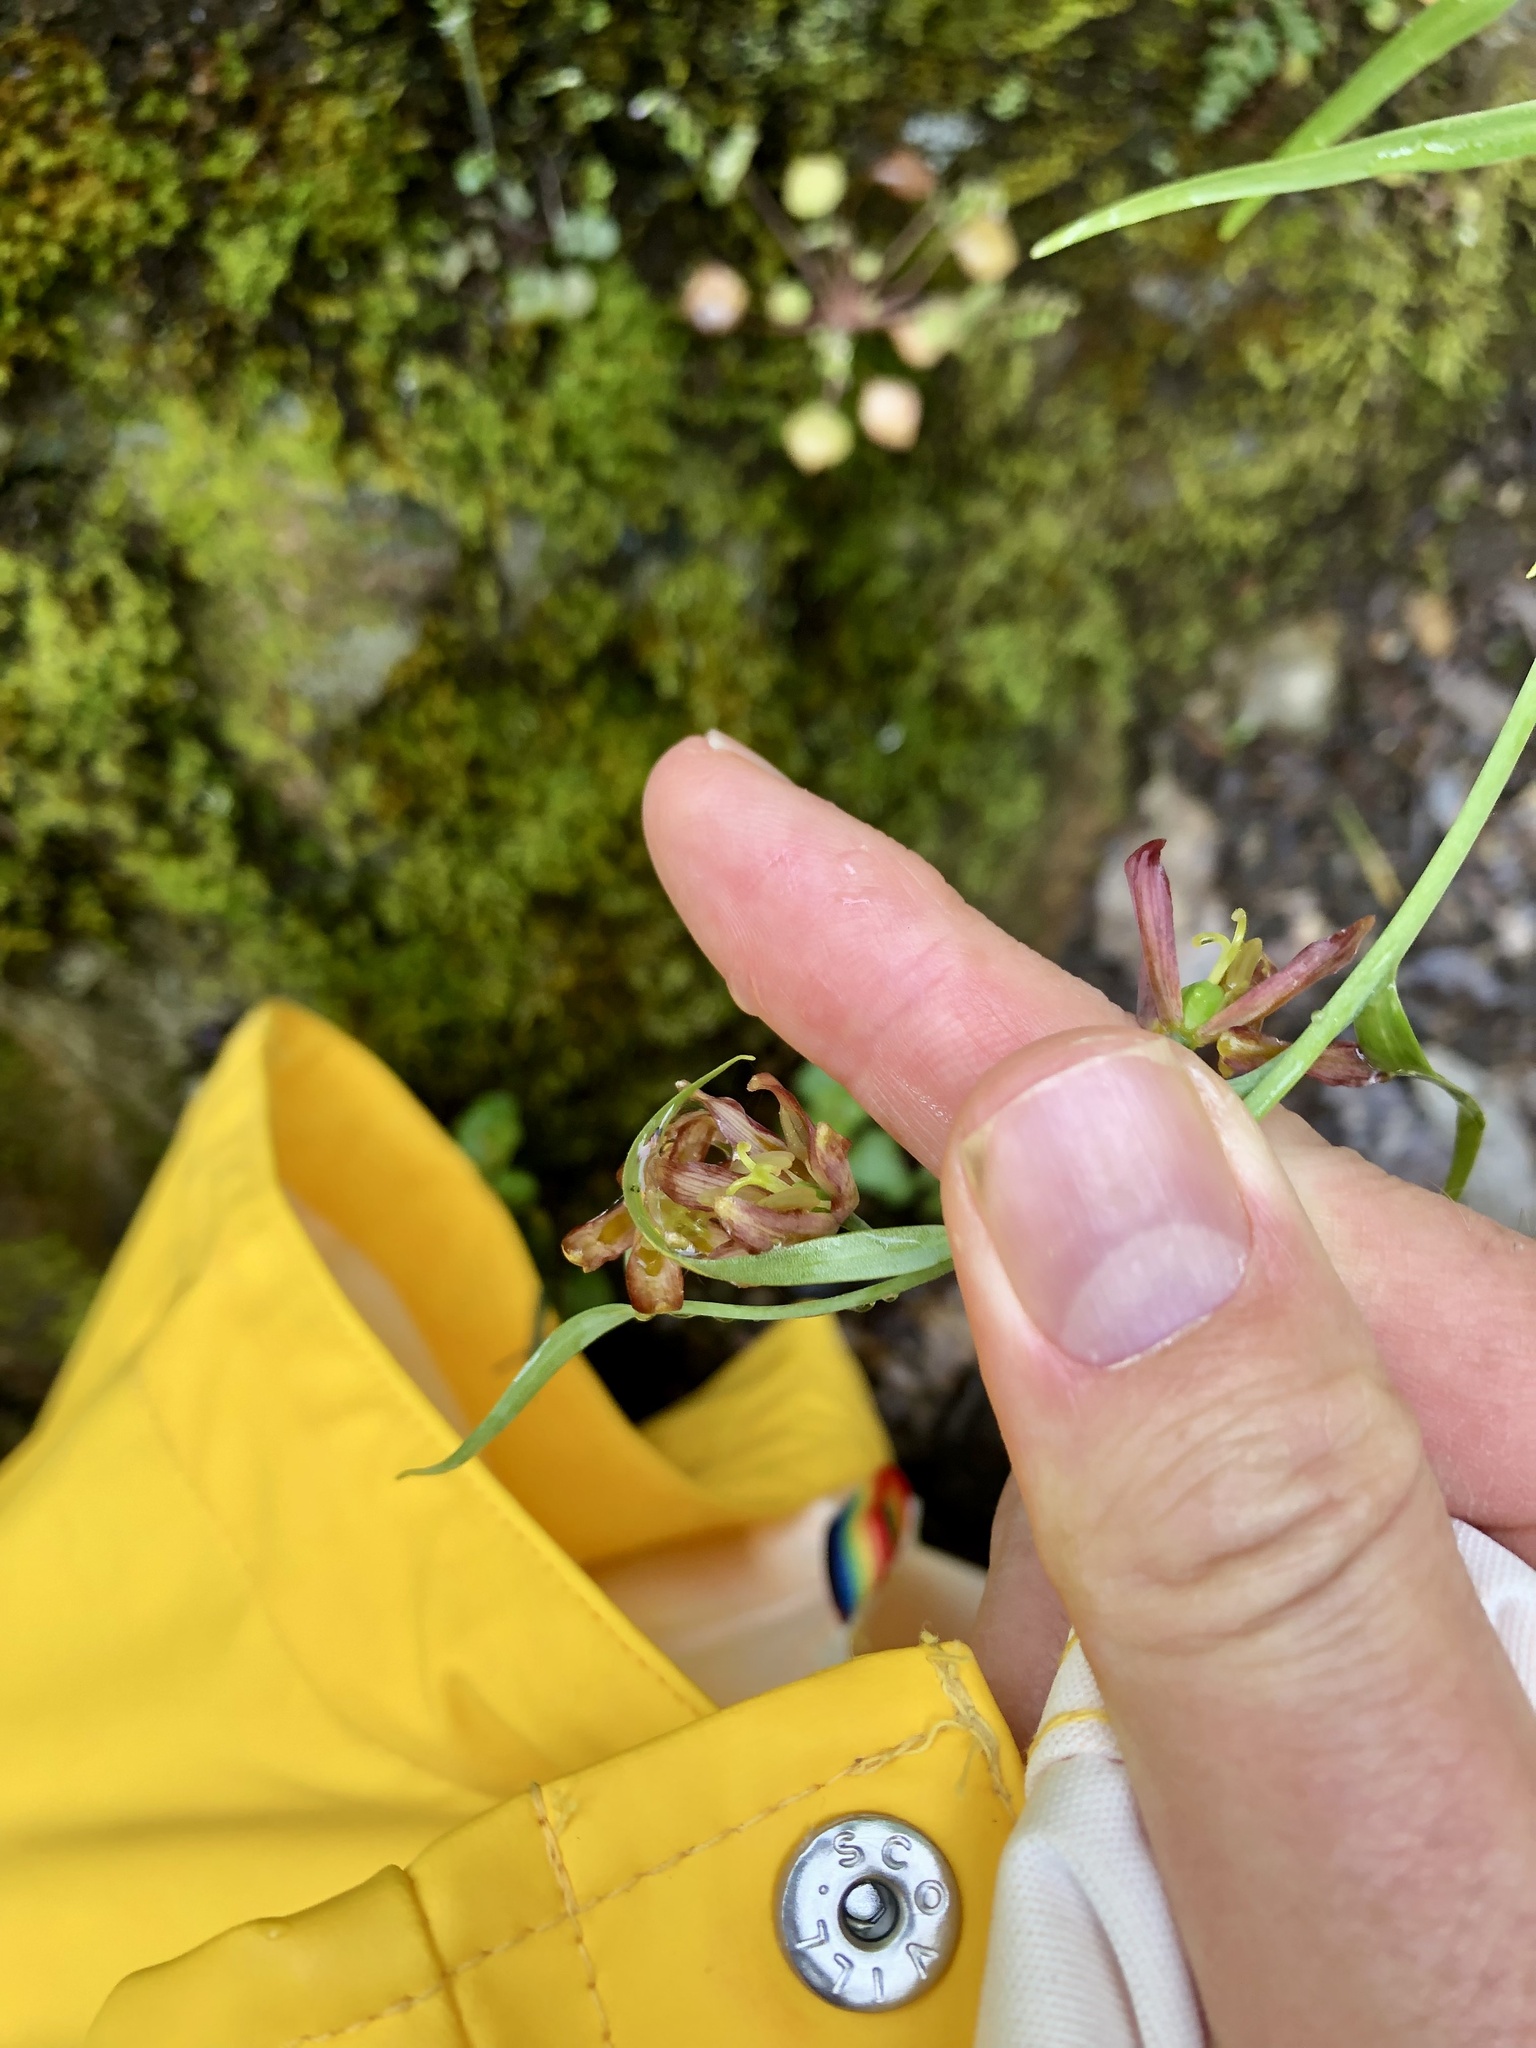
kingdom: Plantae
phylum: Tracheophyta
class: Liliopsida
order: Liliales
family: Liliaceae
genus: Fritillaria
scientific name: Fritillaria micrantha
